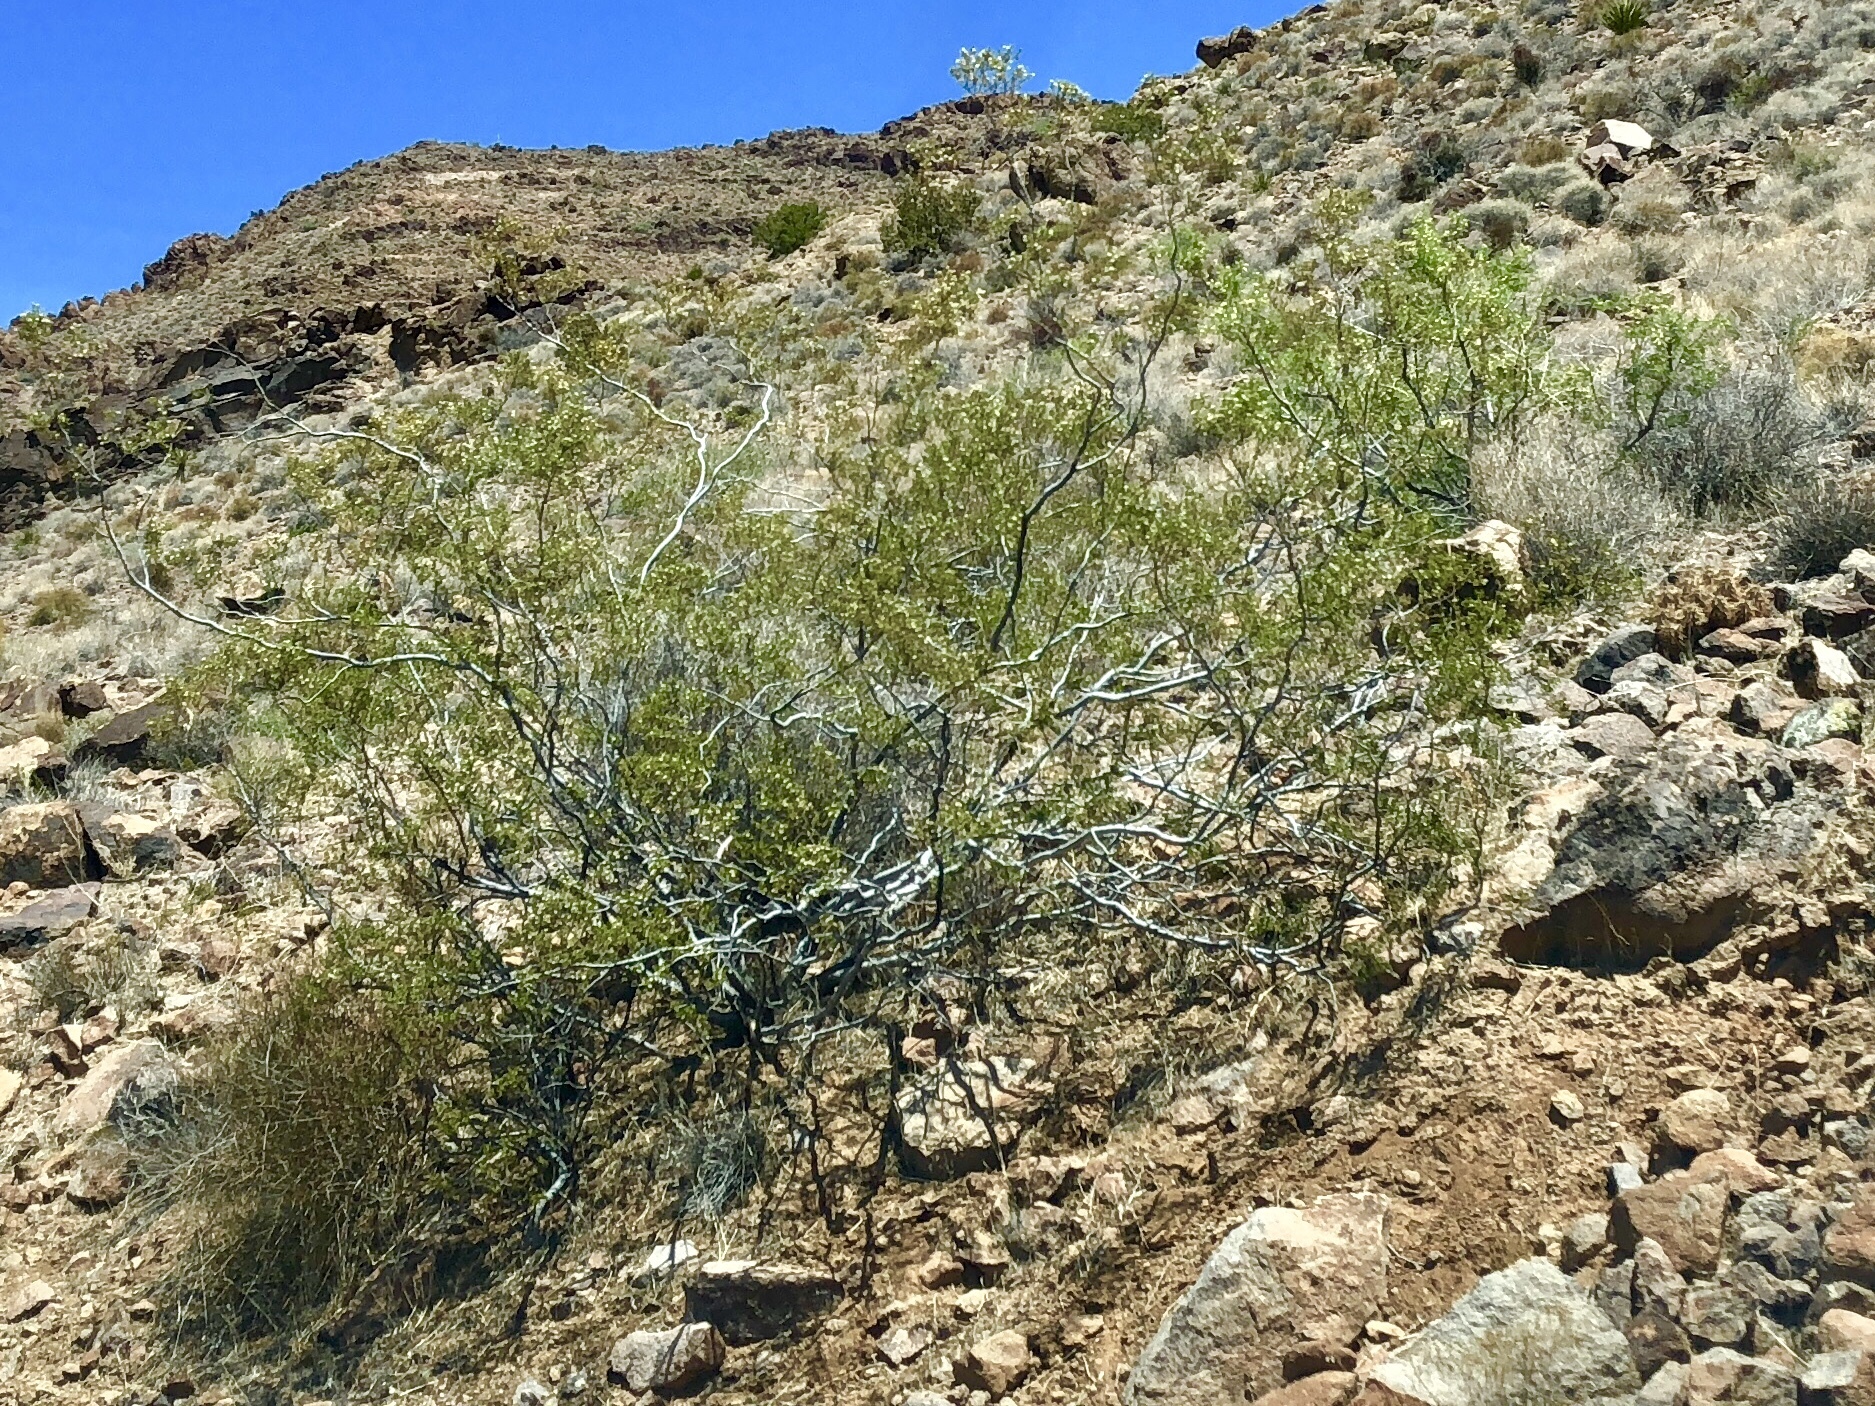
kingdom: Plantae
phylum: Tracheophyta
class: Magnoliopsida
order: Zygophyllales
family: Zygophyllaceae
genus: Larrea
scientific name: Larrea tridentata
